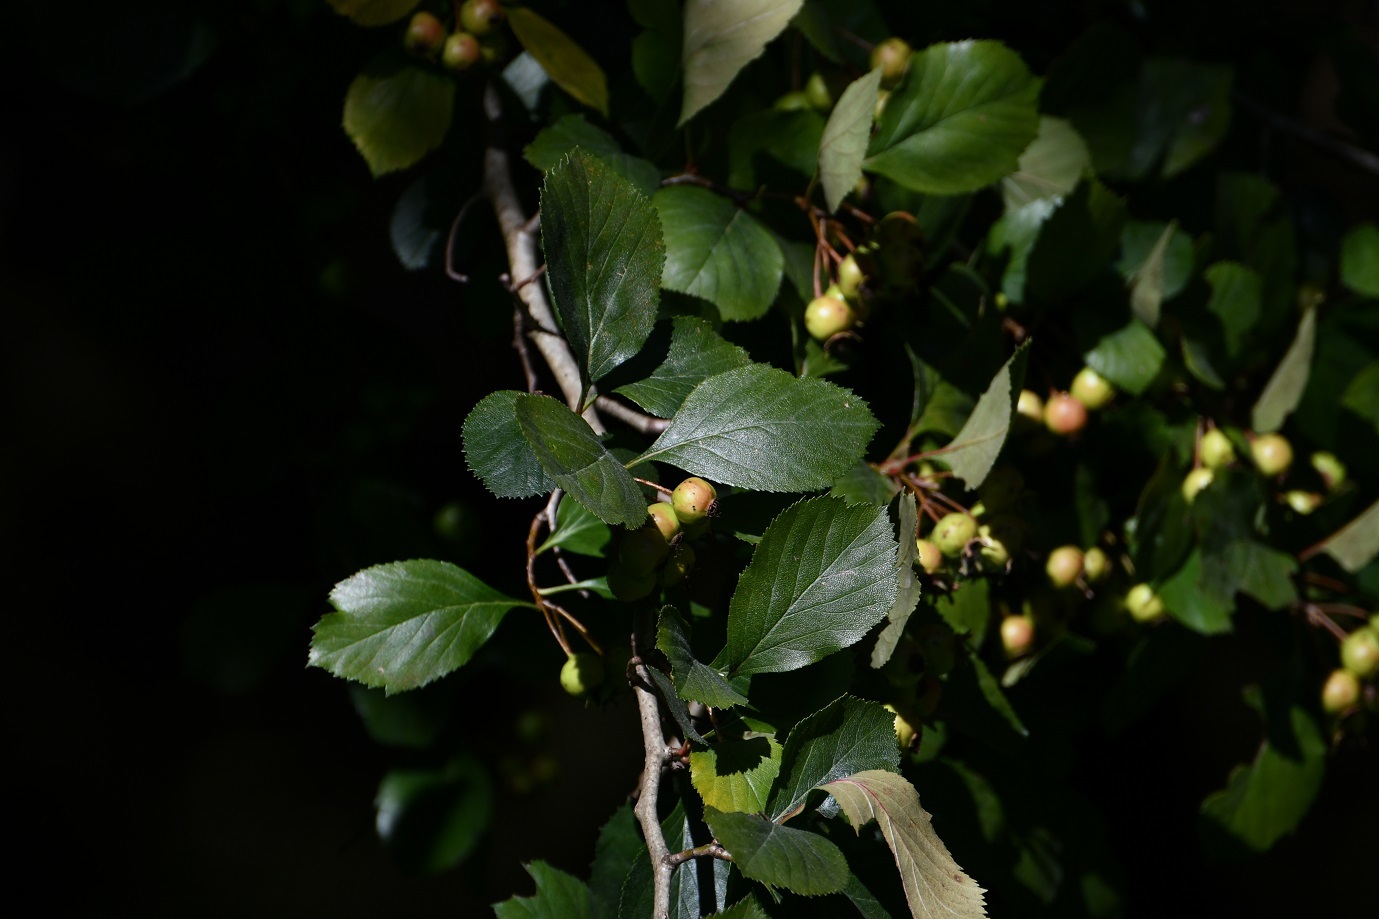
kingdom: Plantae
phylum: Tracheophyta
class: Magnoliopsida
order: Rosales
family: Rosaceae
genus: Crataegus
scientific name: Crataegus mexicana
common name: Mexican hawthorn
